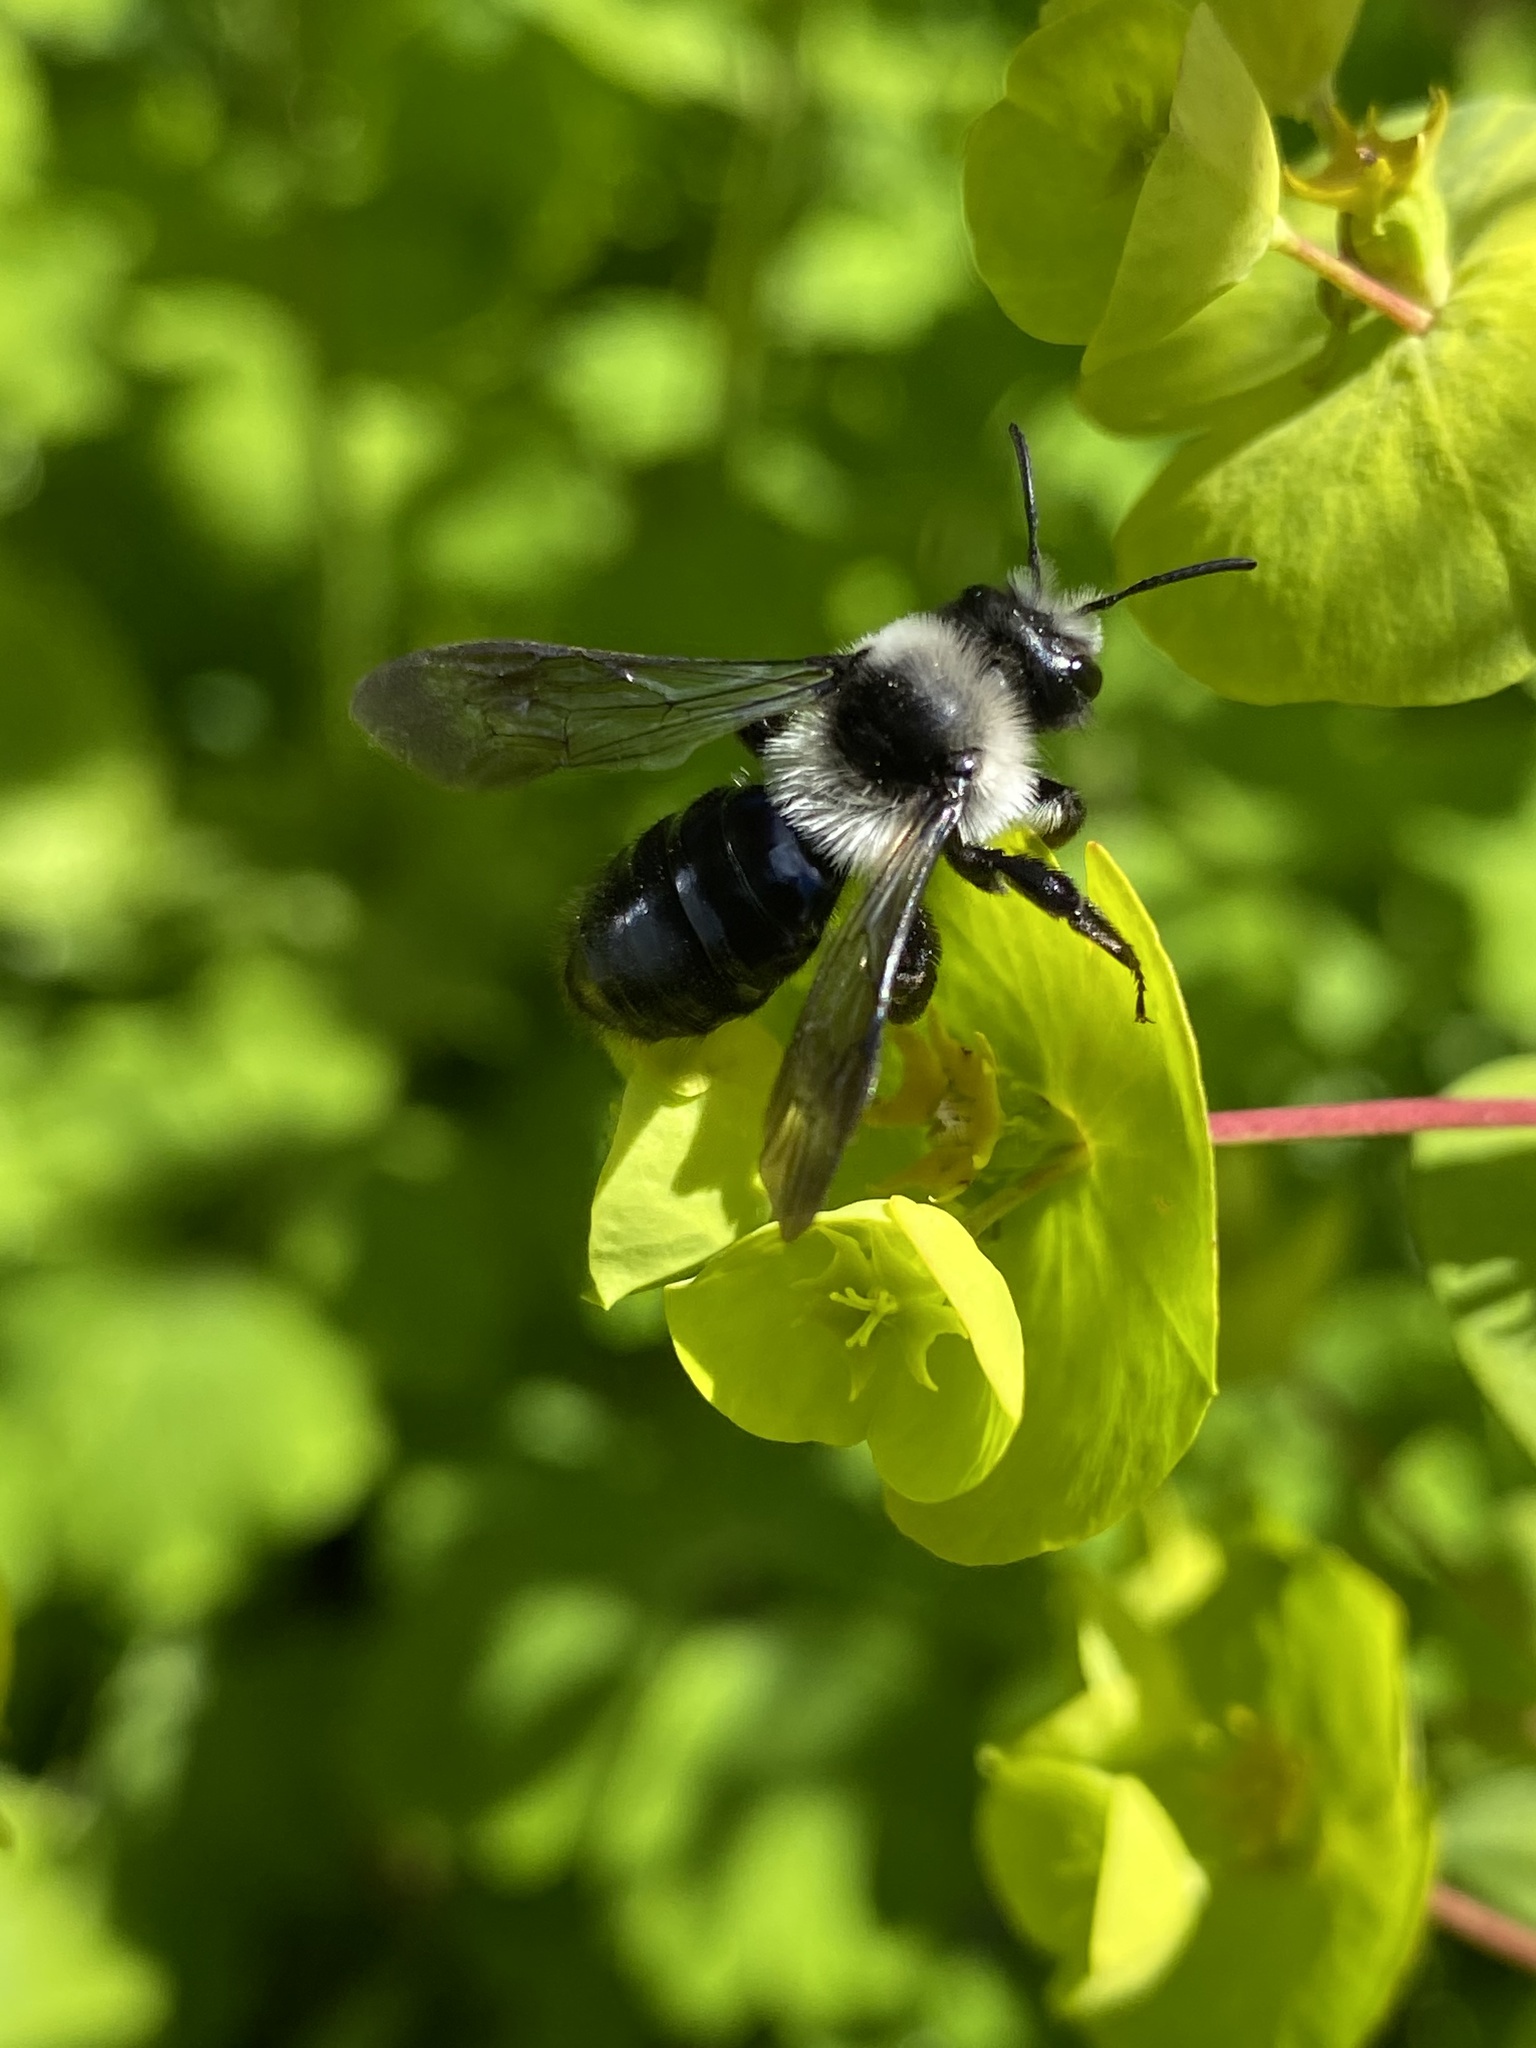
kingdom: Animalia
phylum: Arthropoda
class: Insecta
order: Hymenoptera
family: Andrenidae
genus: Andrena
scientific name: Andrena cineraria
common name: Ashy mining bee
